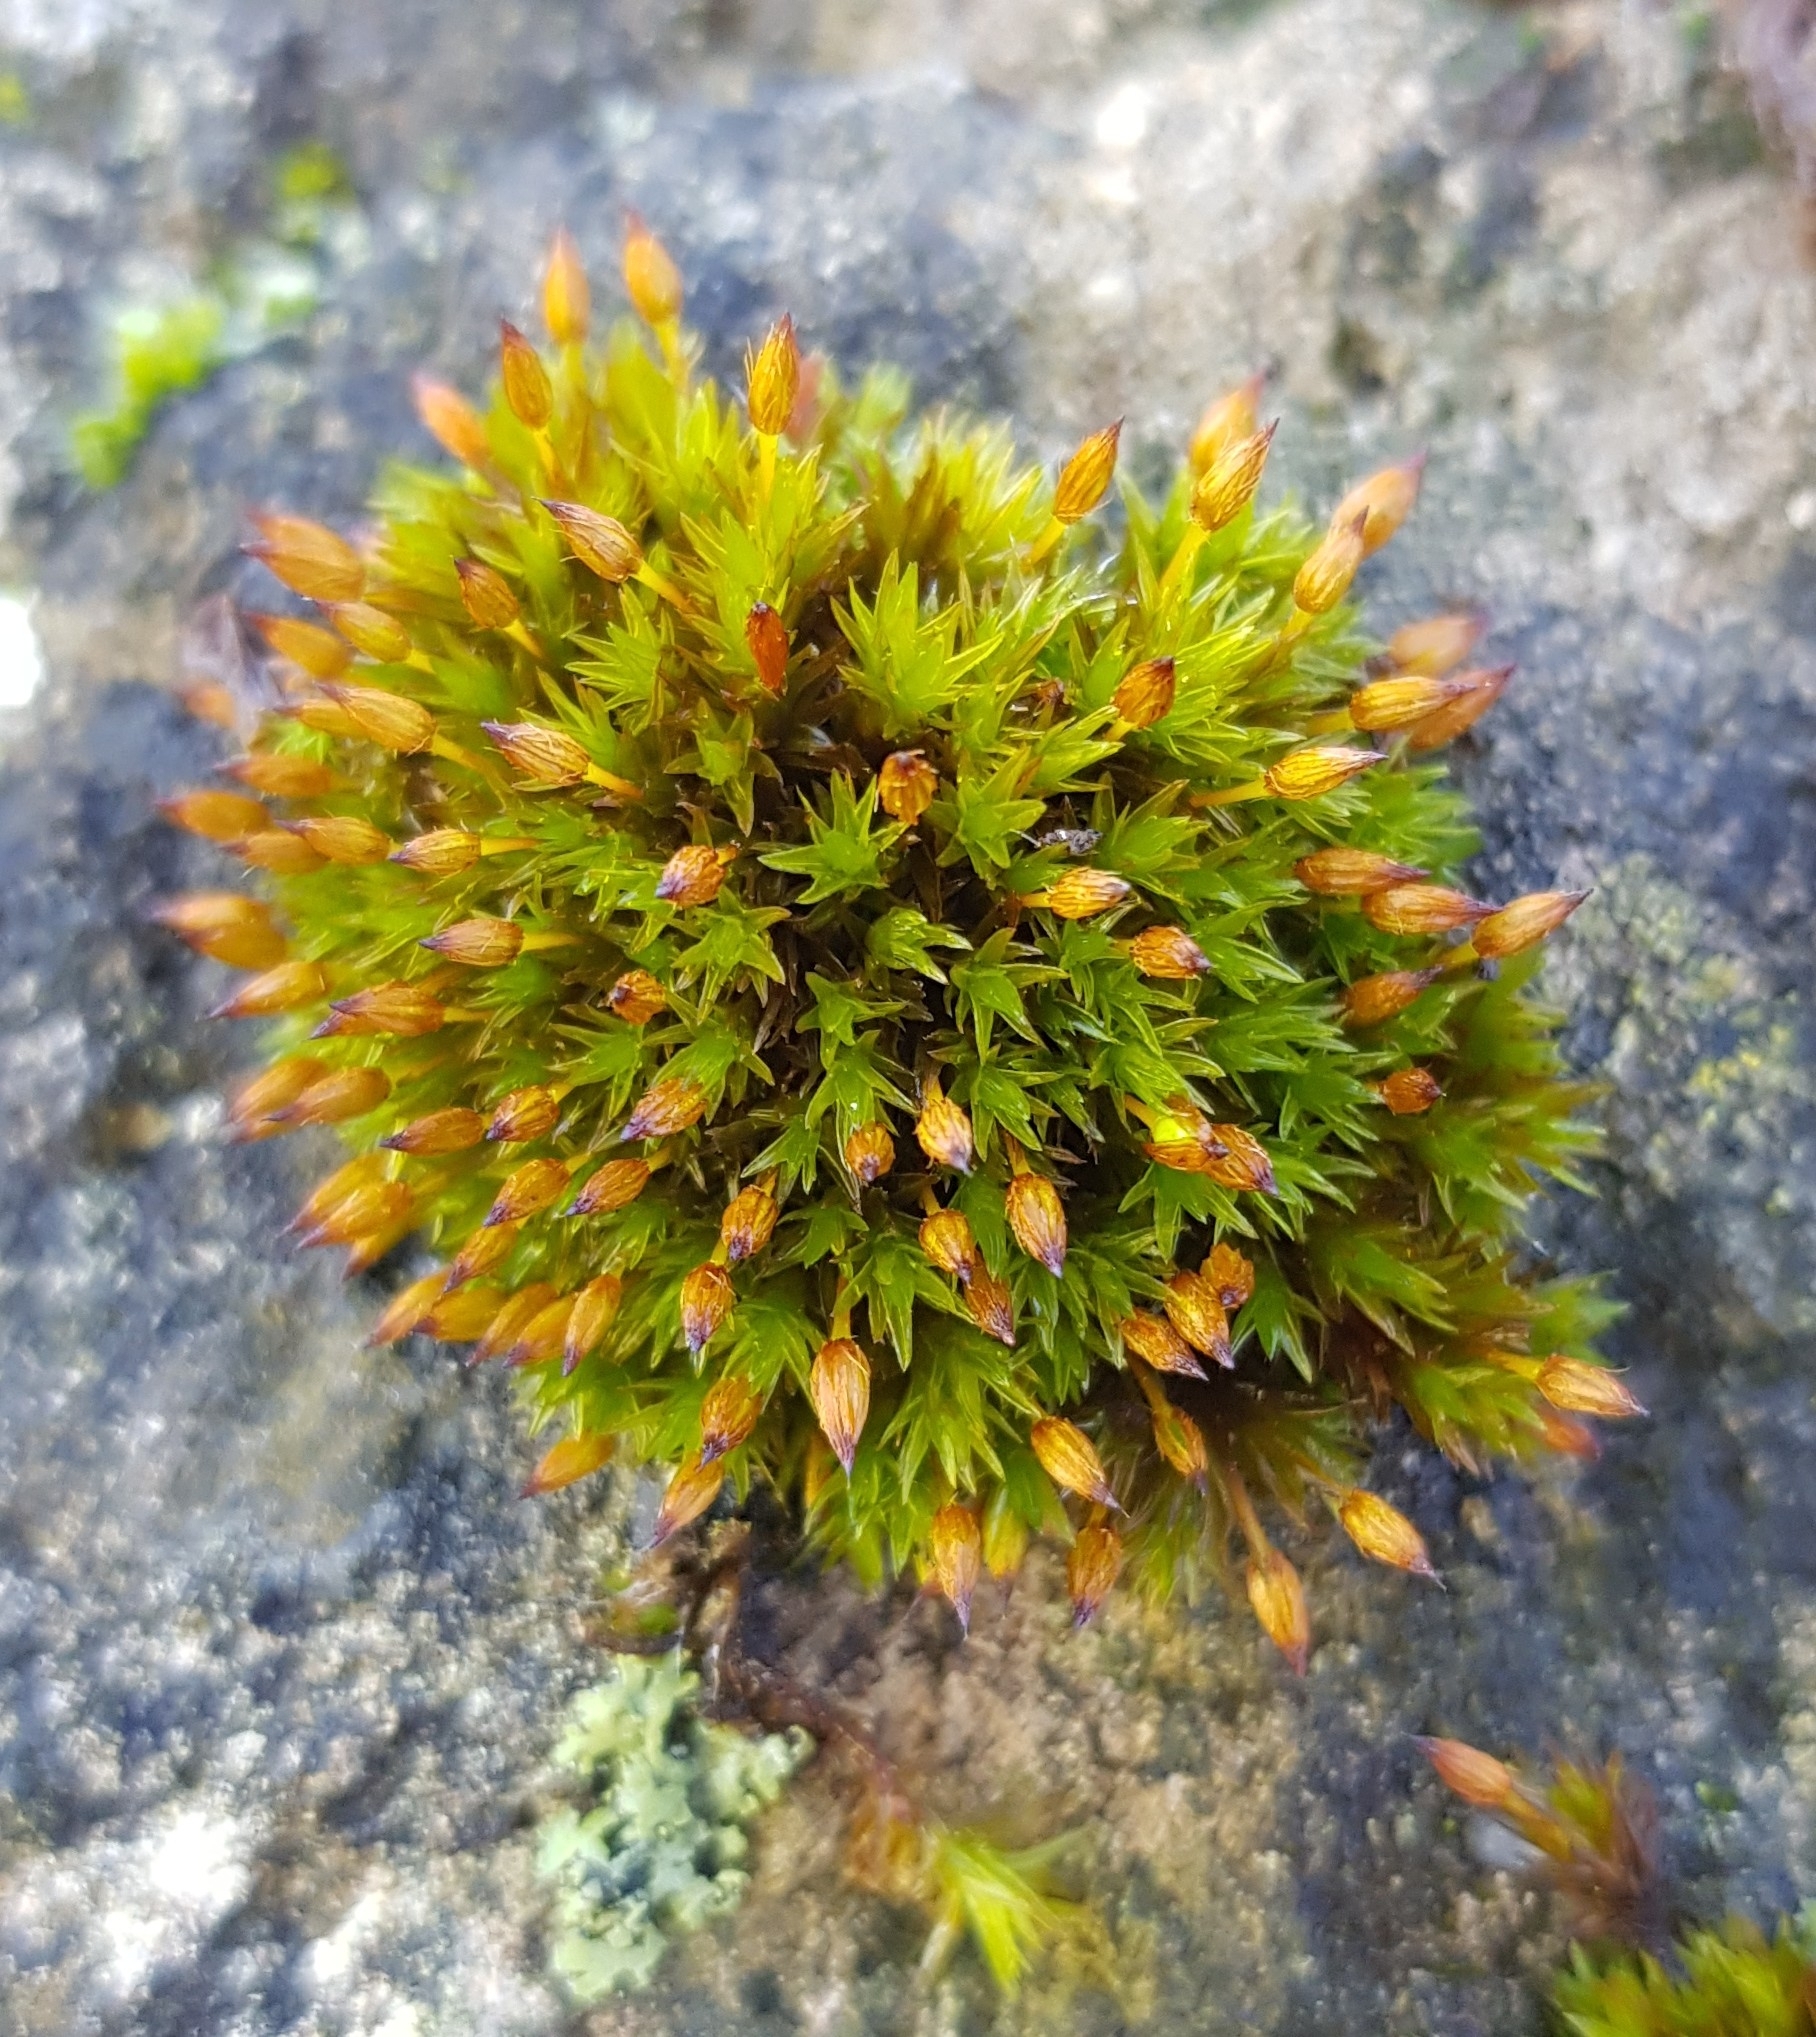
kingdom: Plantae
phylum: Bryophyta
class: Bryopsida
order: Orthotrichales
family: Orthotrichaceae
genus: Orthotrichum
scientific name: Orthotrichum anomalum
